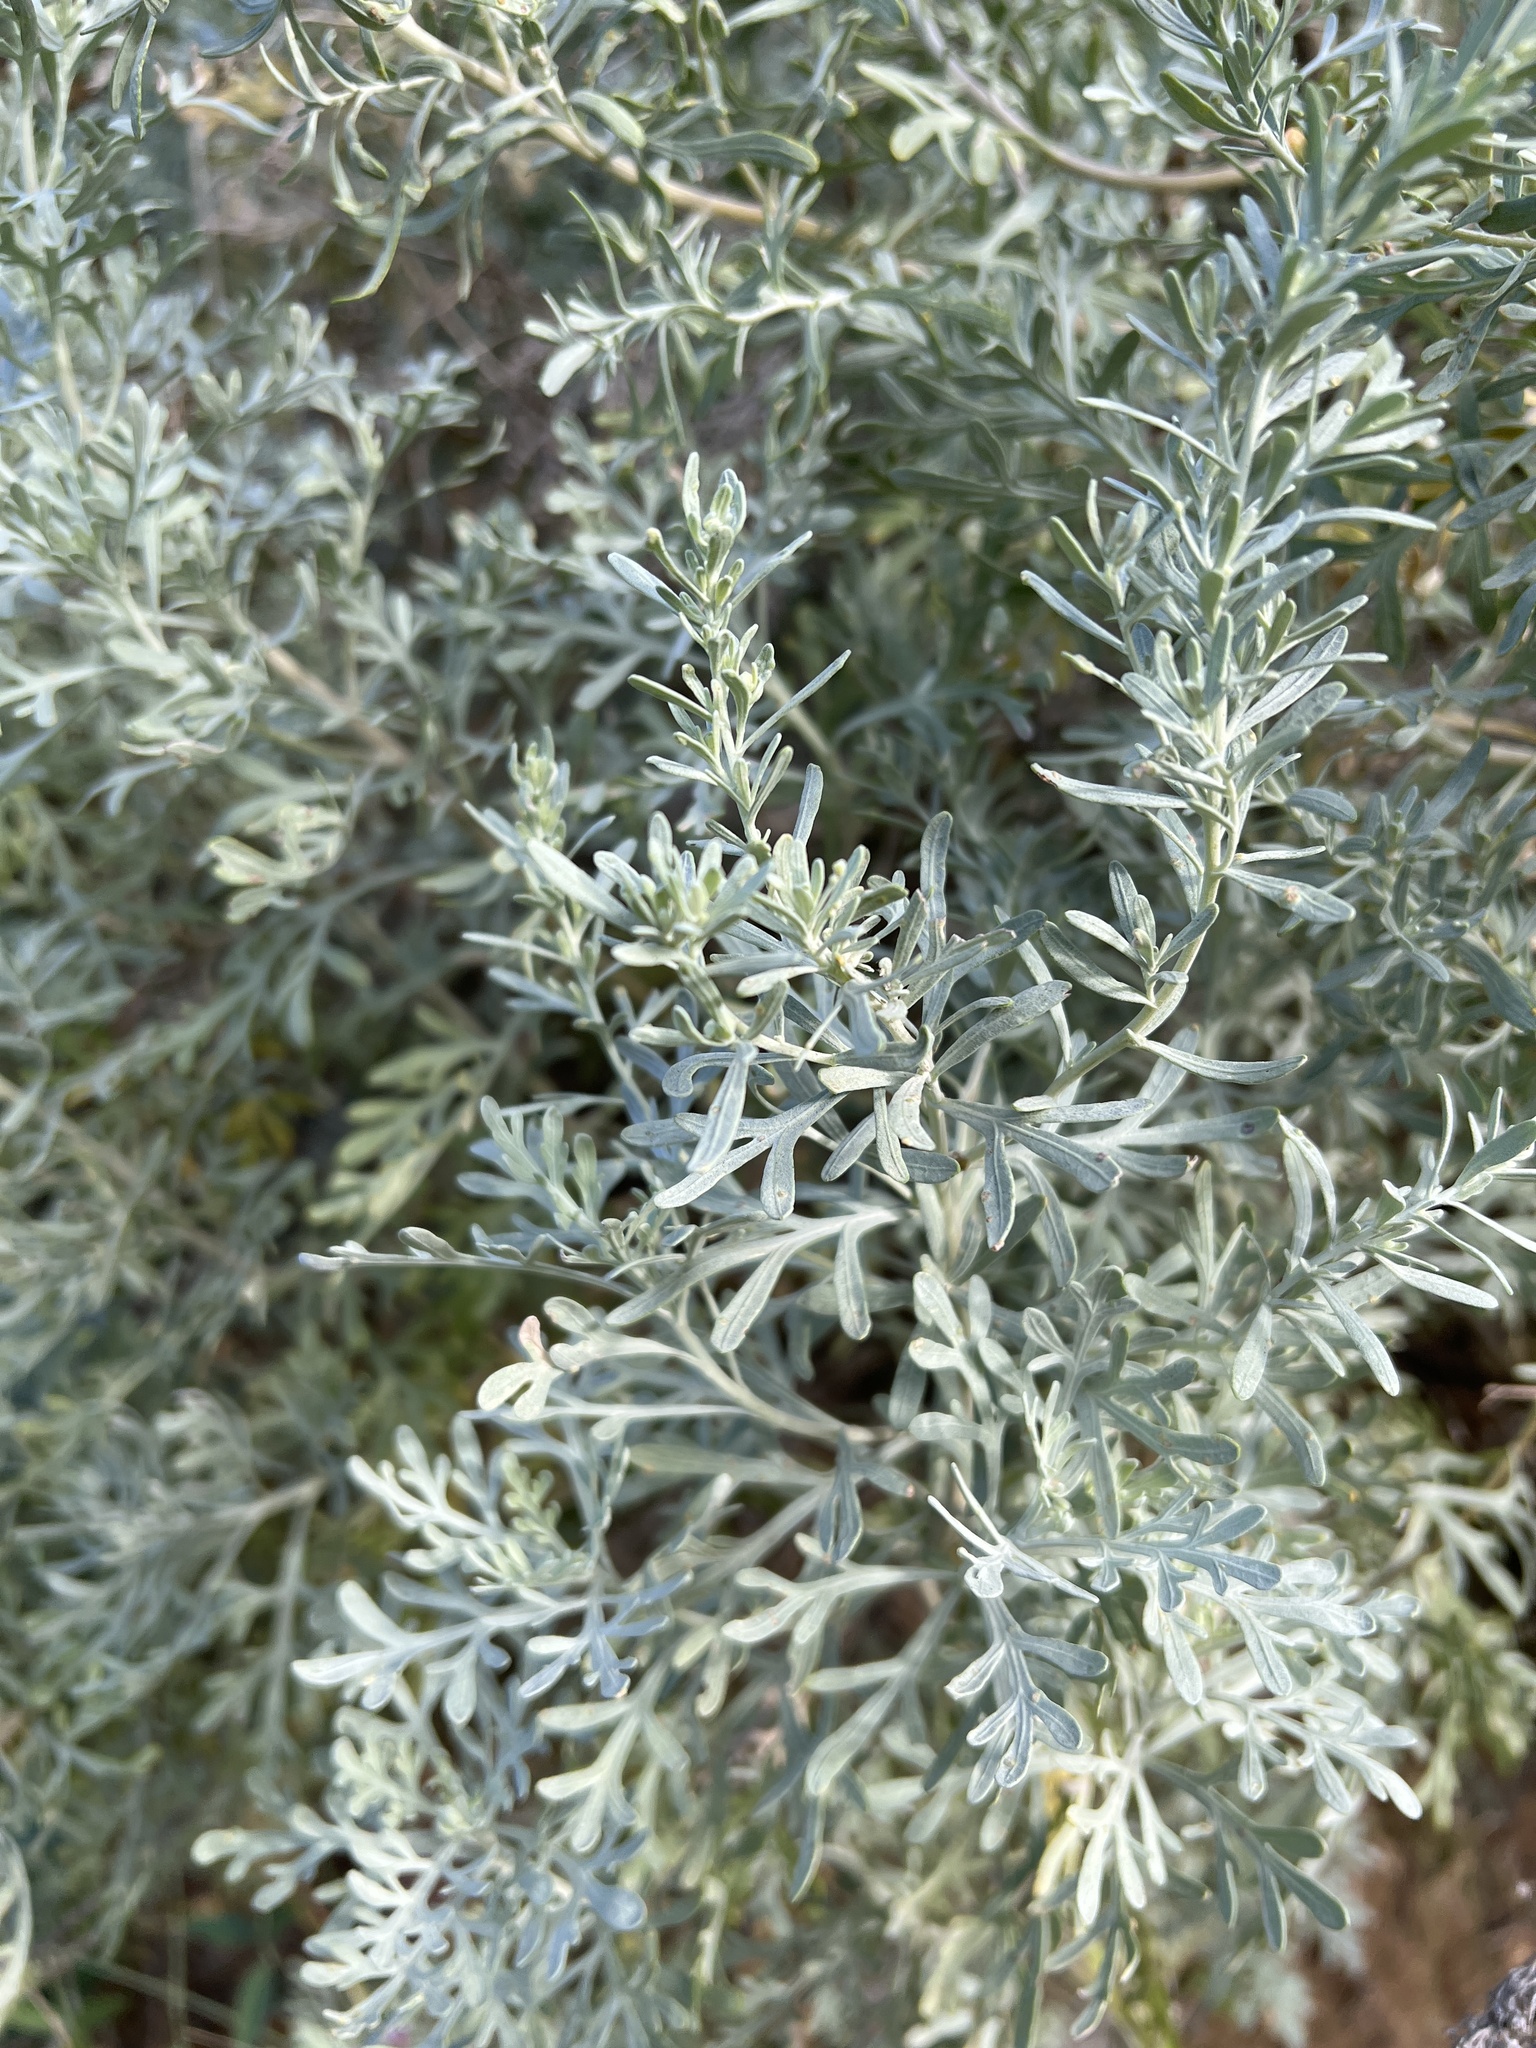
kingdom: Plantae
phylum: Tracheophyta
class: Magnoliopsida
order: Asterales
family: Asteraceae
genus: Artemisia
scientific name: Artemisia thuscula
